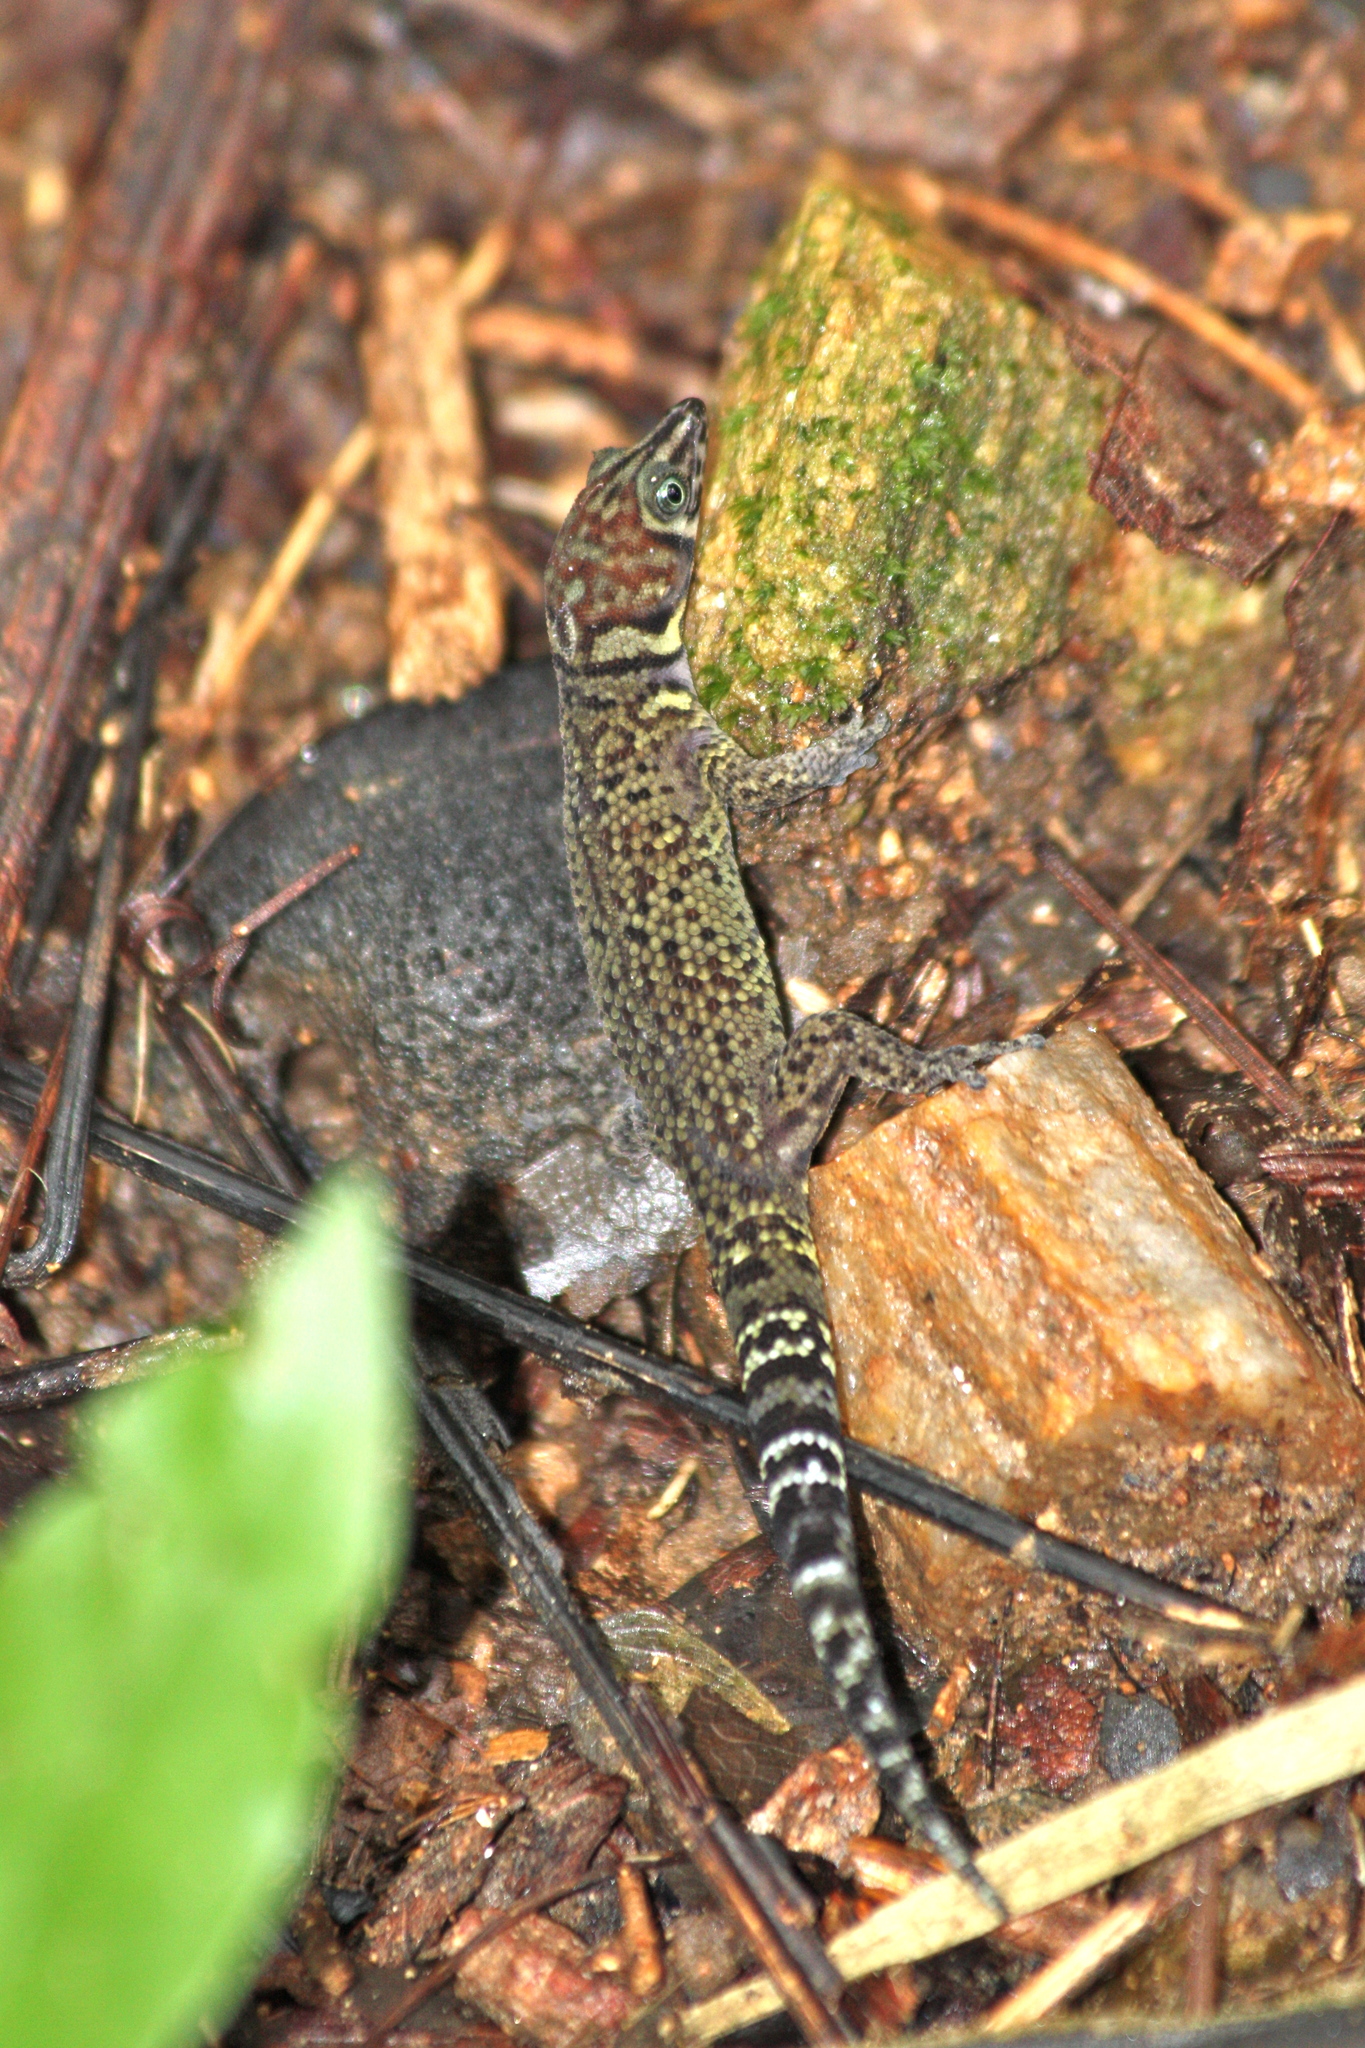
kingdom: Animalia
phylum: Chordata
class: Squamata
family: Sphaerodactylidae
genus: Sphaerodactylus
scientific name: Sphaerodactylus rosaurae
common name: Bay island least gecko
